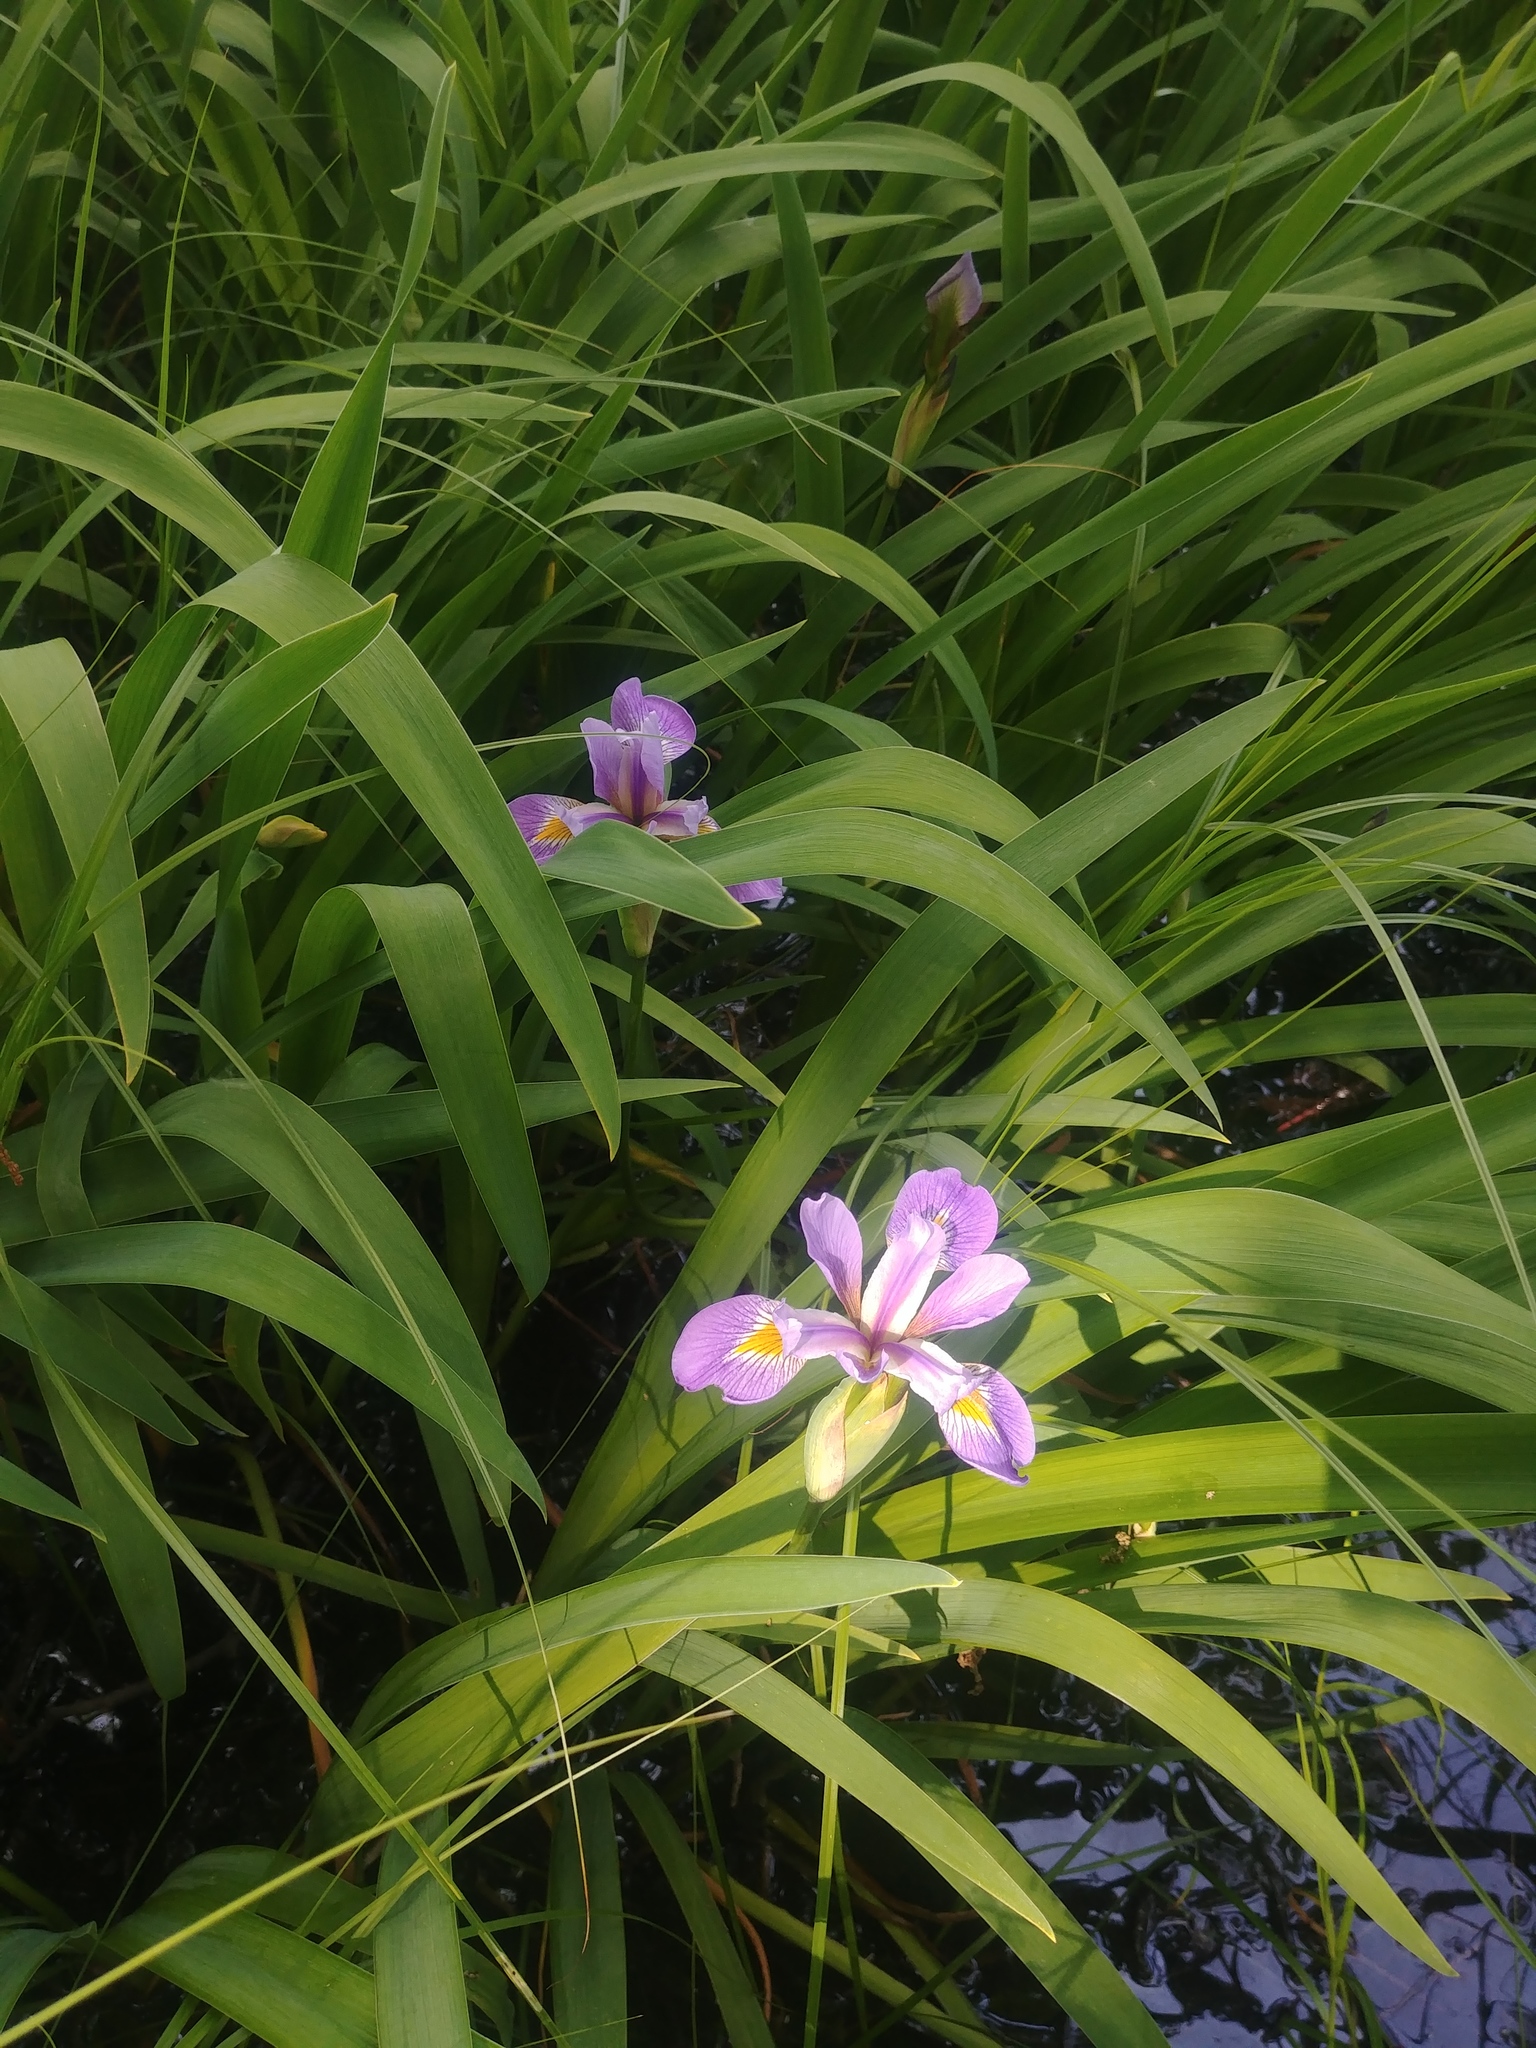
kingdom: Plantae
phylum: Tracheophyta
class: Liliopsida
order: Asparagales
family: Iridaceae
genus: Iris
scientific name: Iris virginica
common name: Southern blue flag
